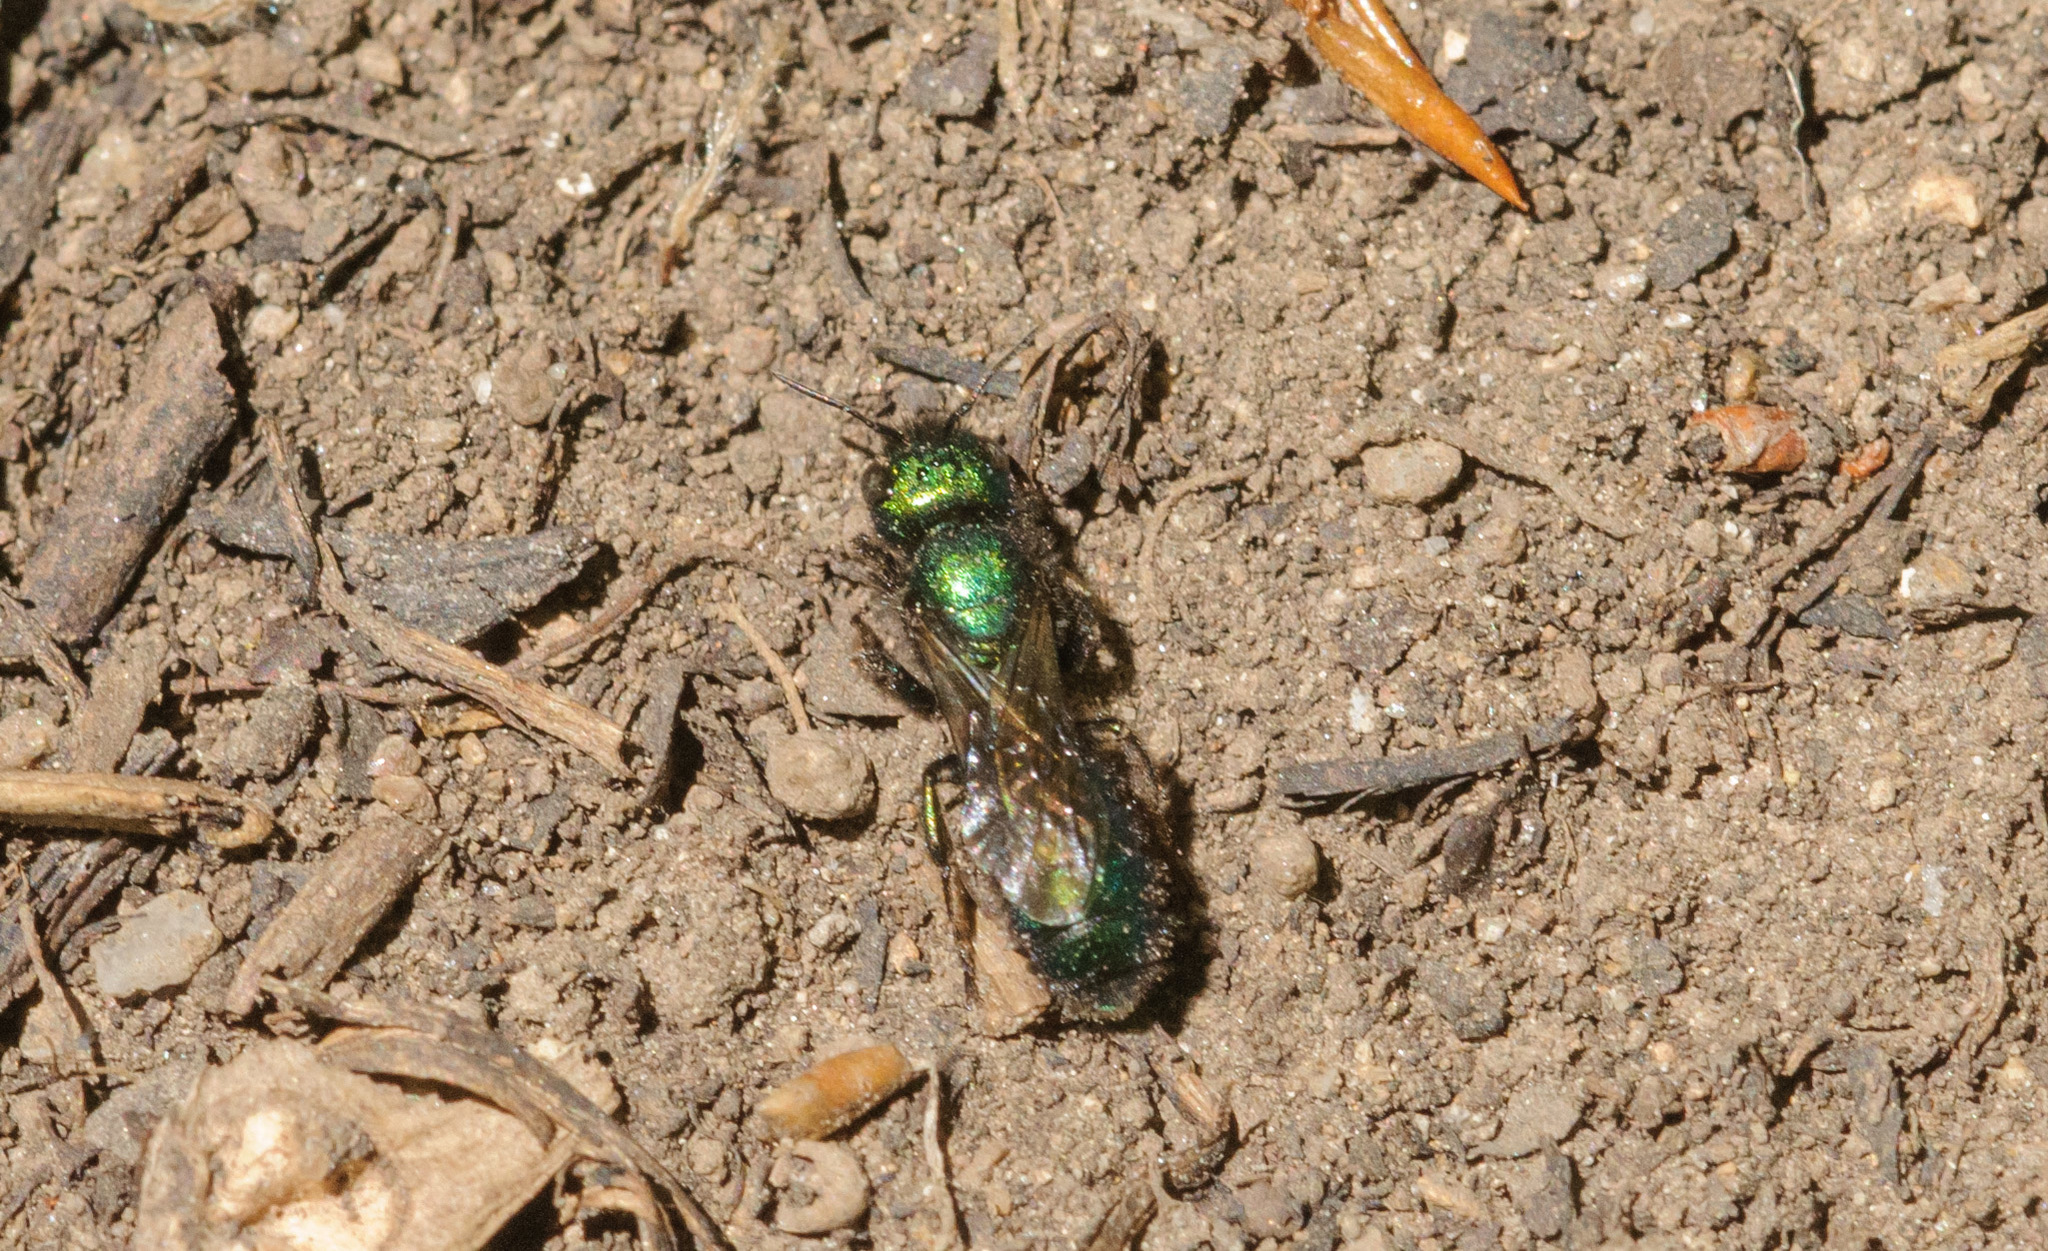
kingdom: Animalia
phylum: Arthropoda
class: Insecta
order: Hymenoptera
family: Megachilidae
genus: Hoplitis
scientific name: Hoplitis fulgida
